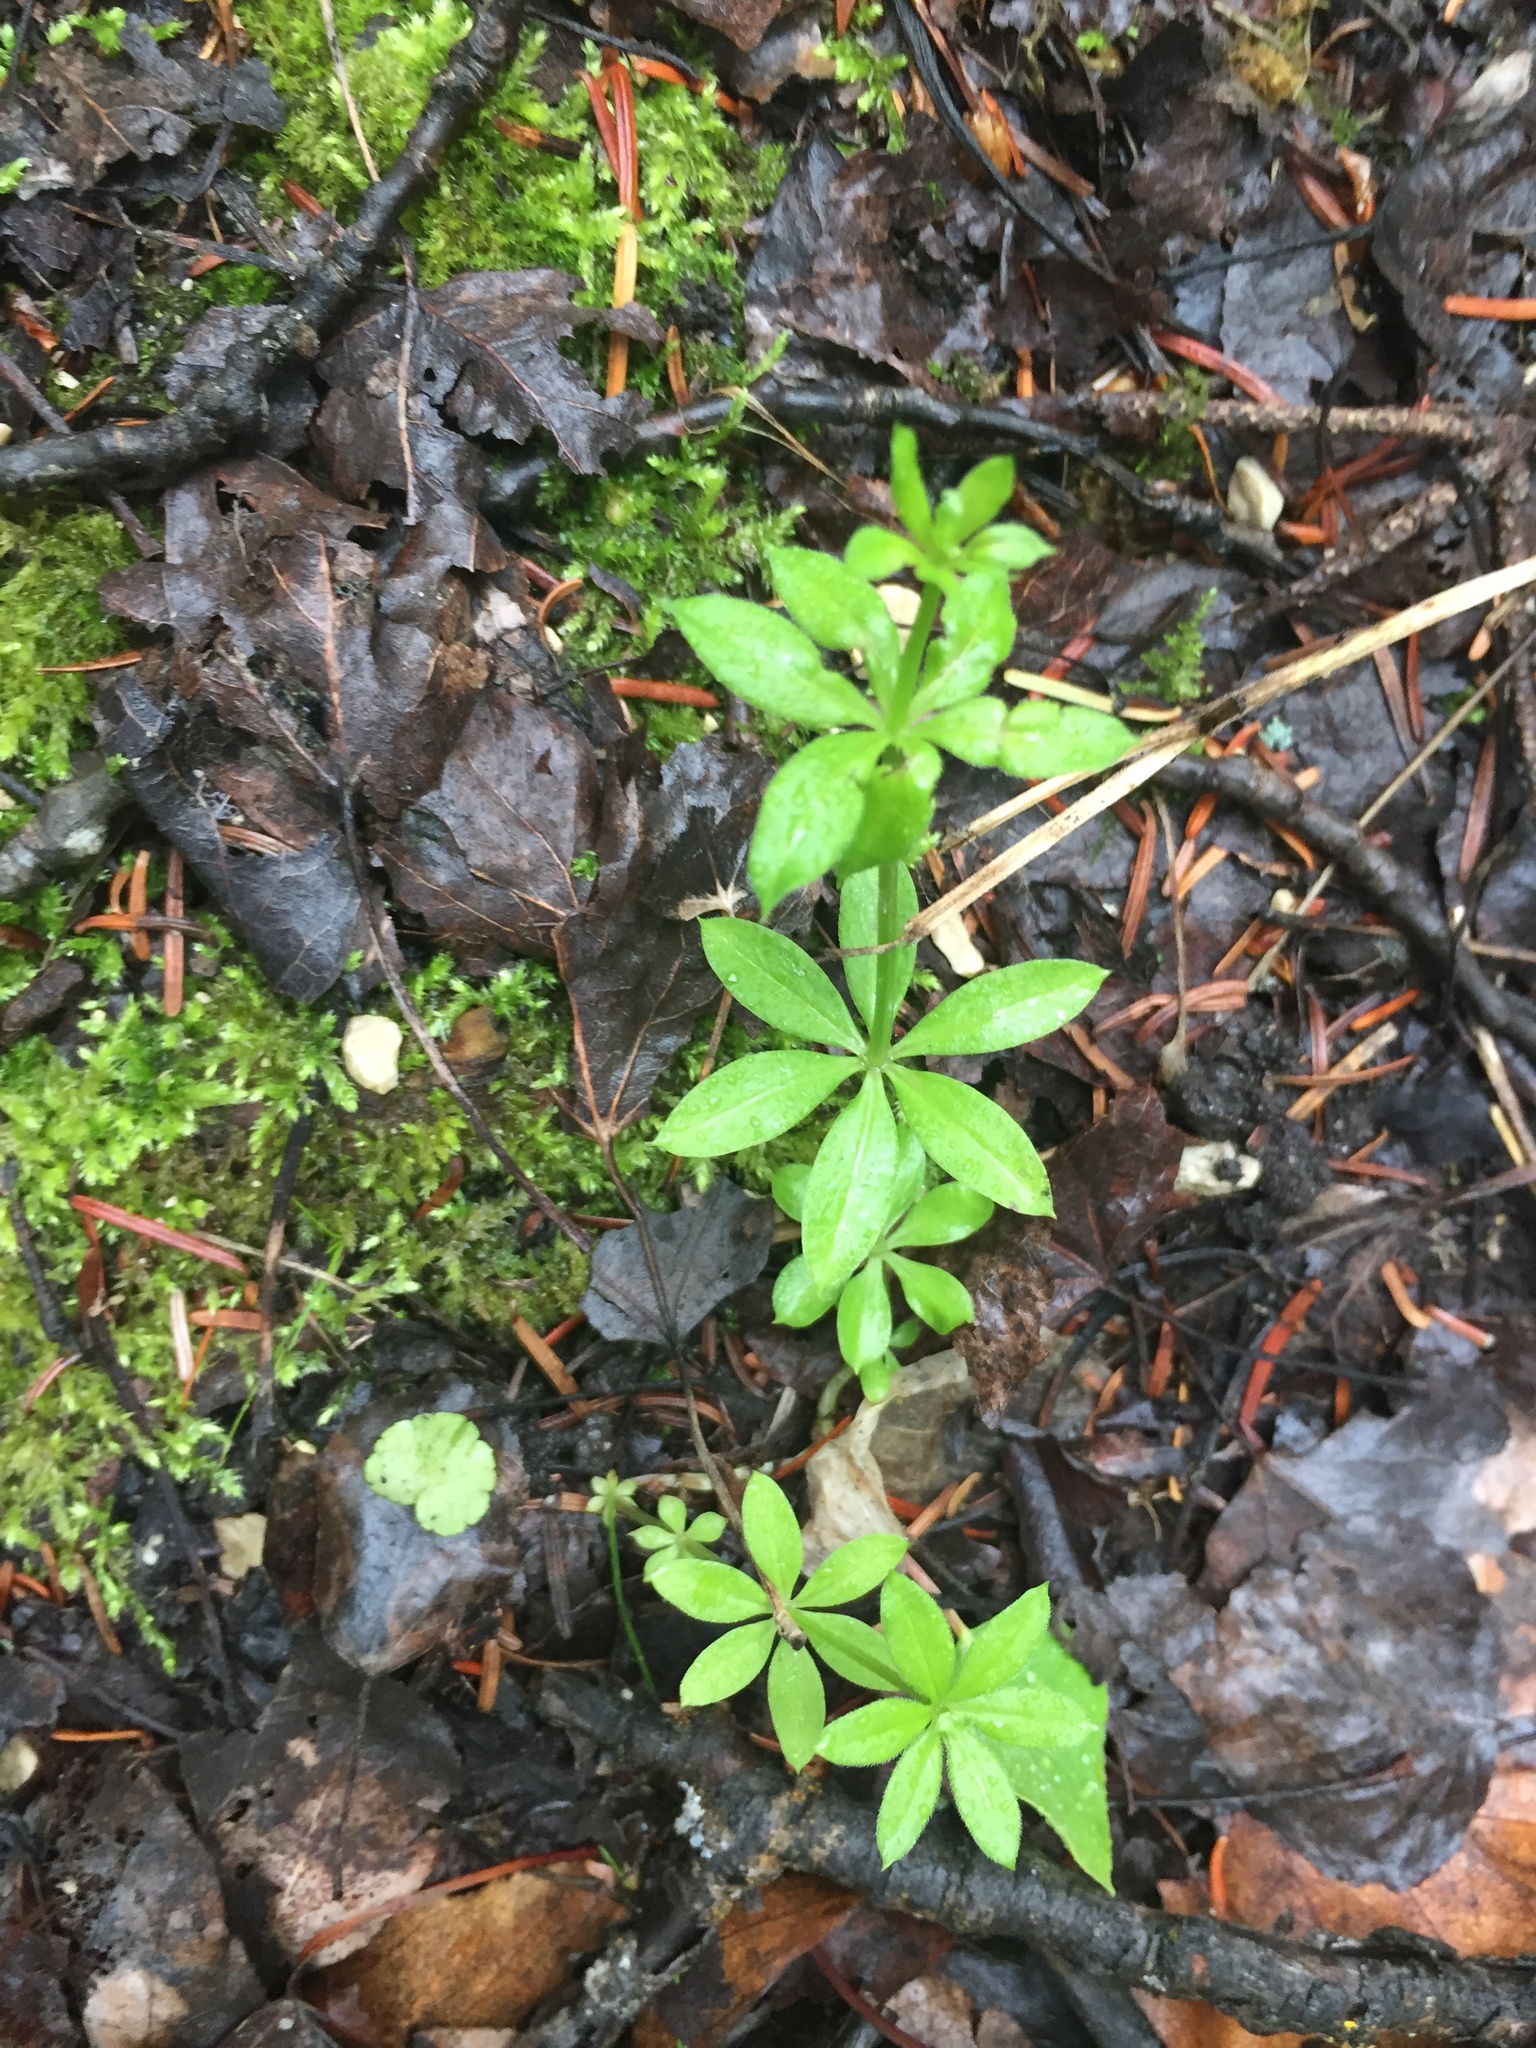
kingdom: Plantae
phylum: Tracheophyta
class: Magnoliopsida
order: Gentianales
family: Rubiaceae
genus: Galium
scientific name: Galium triflorum
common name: Fragrant bedstraw
